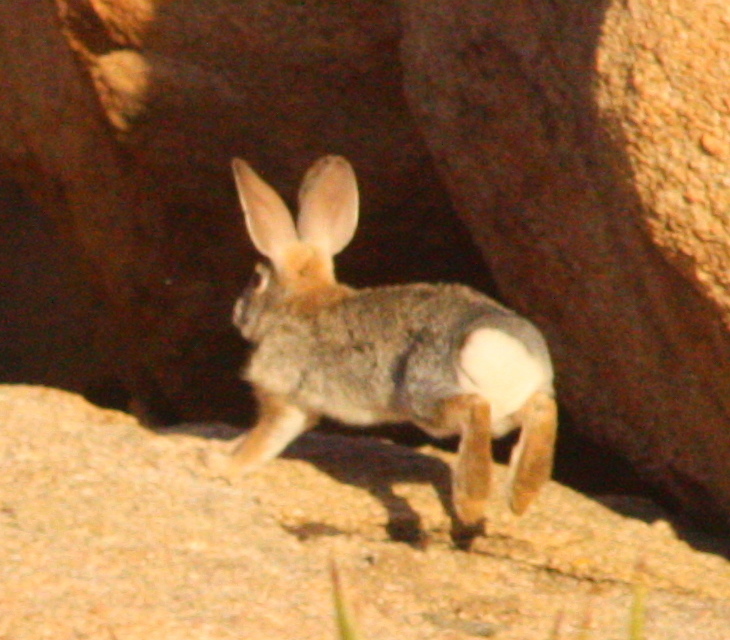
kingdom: Animalia
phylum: Chordata
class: Mammalia
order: Lagomorpha
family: Leporidae
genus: Sylvilagus
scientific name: Sylvilagus audubonii
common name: Desert cottontail
